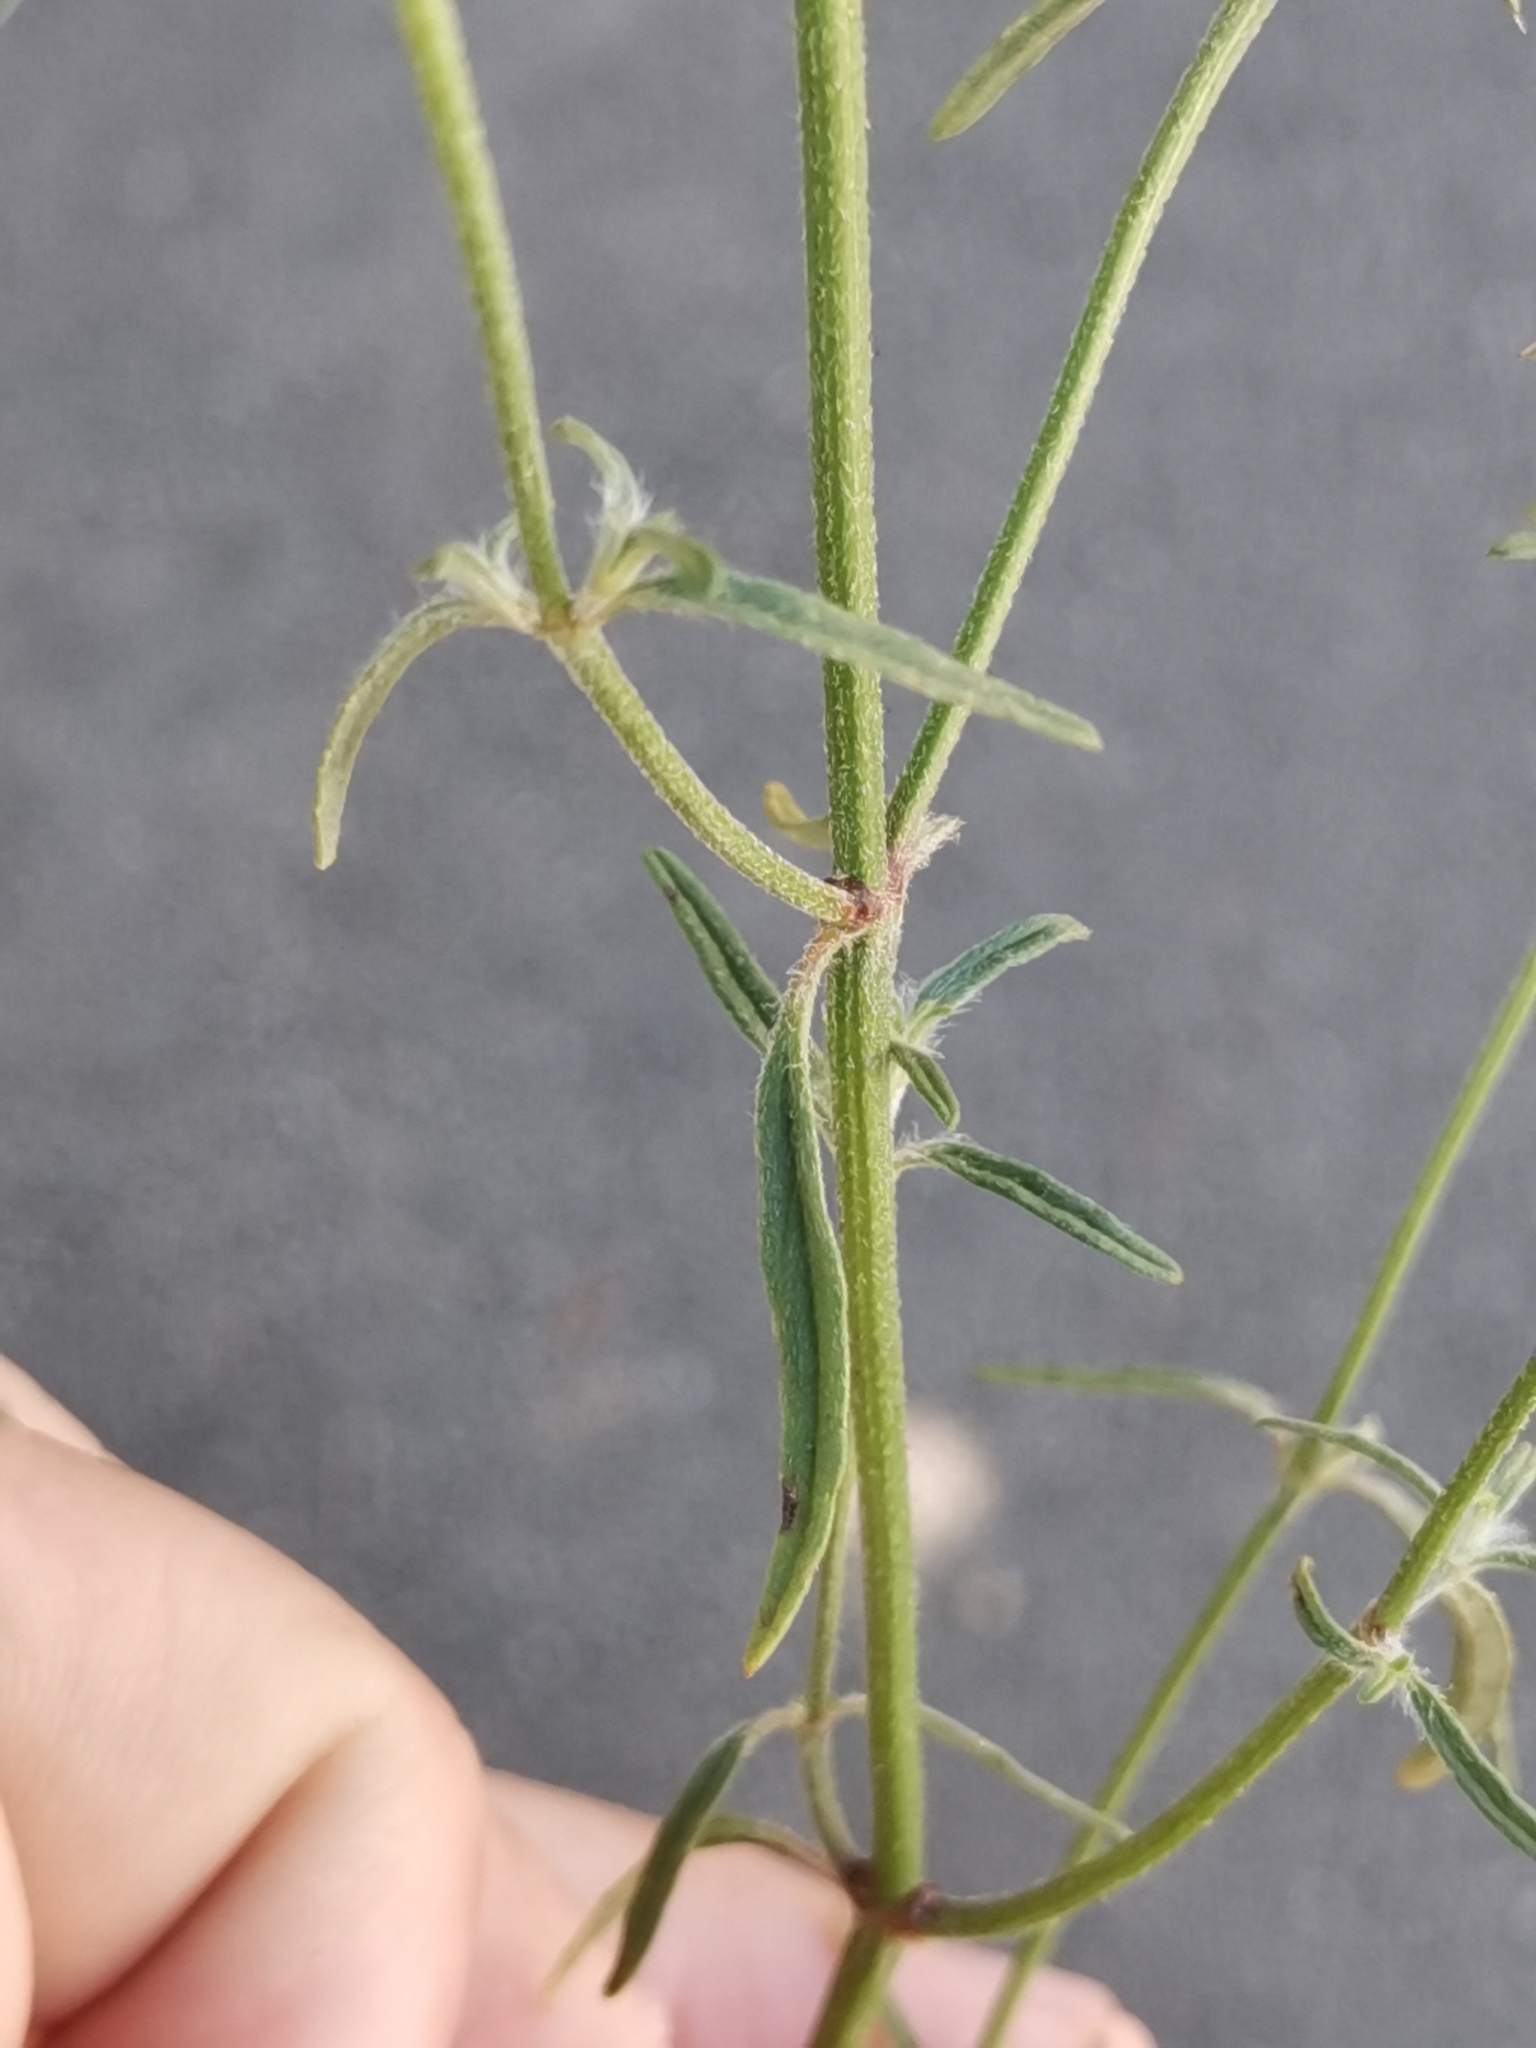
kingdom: Plantae
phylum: Tracheophyta
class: Magnoliopsida
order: Lamiales
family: Lamiaceae
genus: Galeopsis
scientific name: Galeopsis angustifolia
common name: Red hemp-nettle
